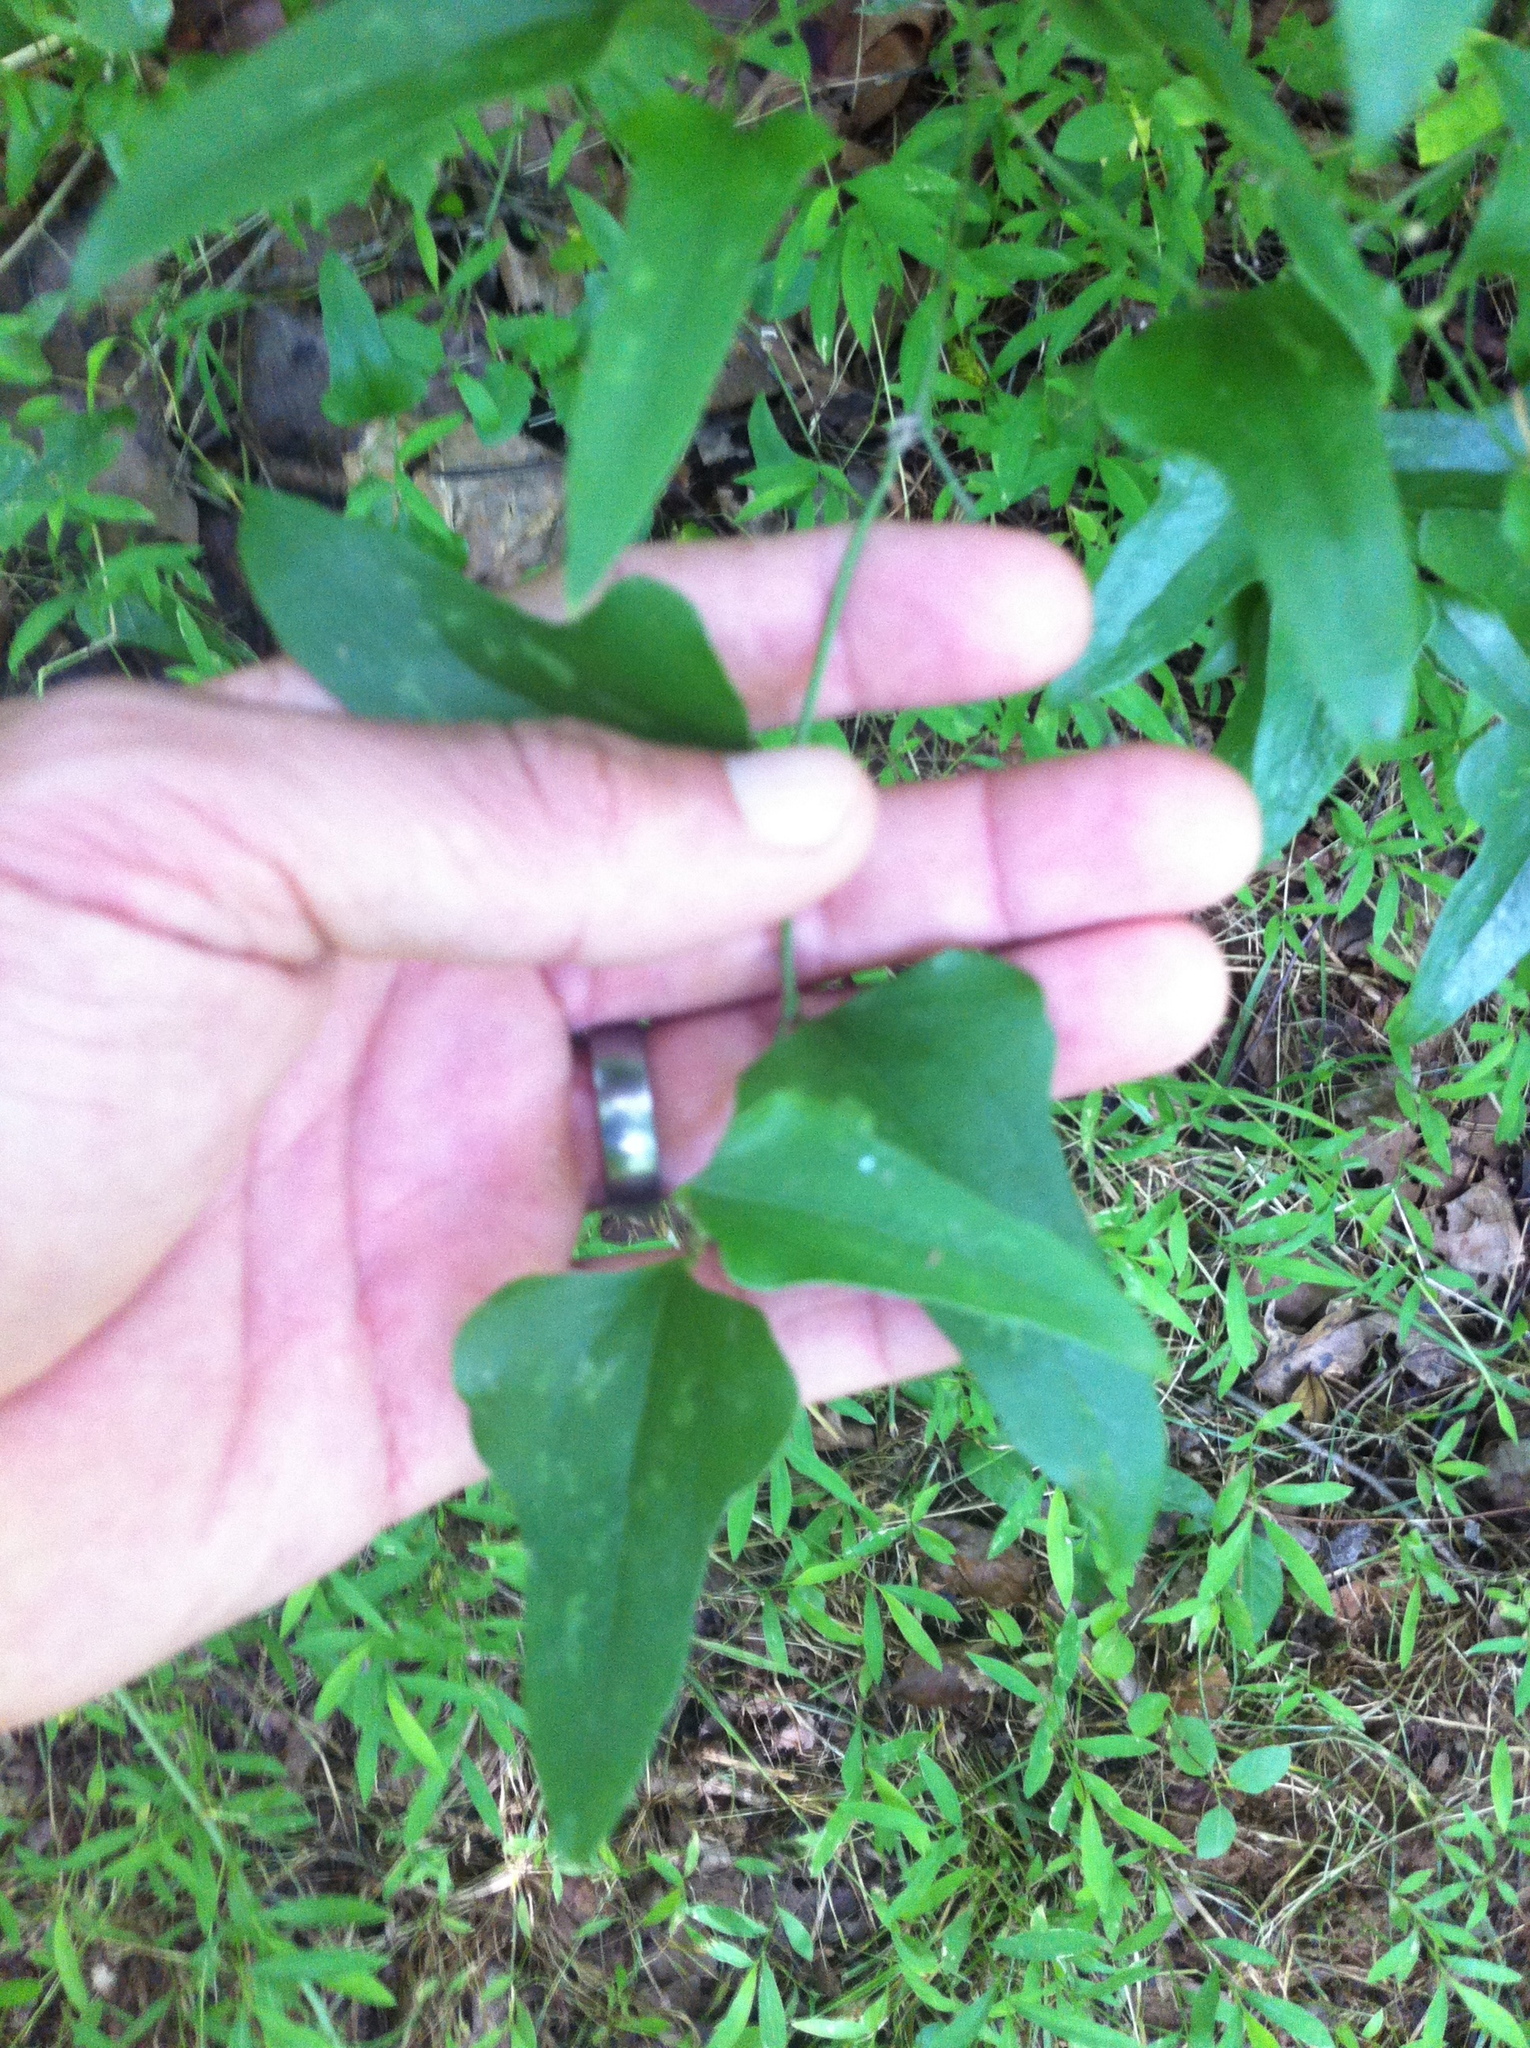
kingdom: Plantae
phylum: Tracheophyta
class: Liliopsida
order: Liliales
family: Smilacaceae
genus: Smilax
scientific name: Smilax bona-nox
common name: Catbrier
